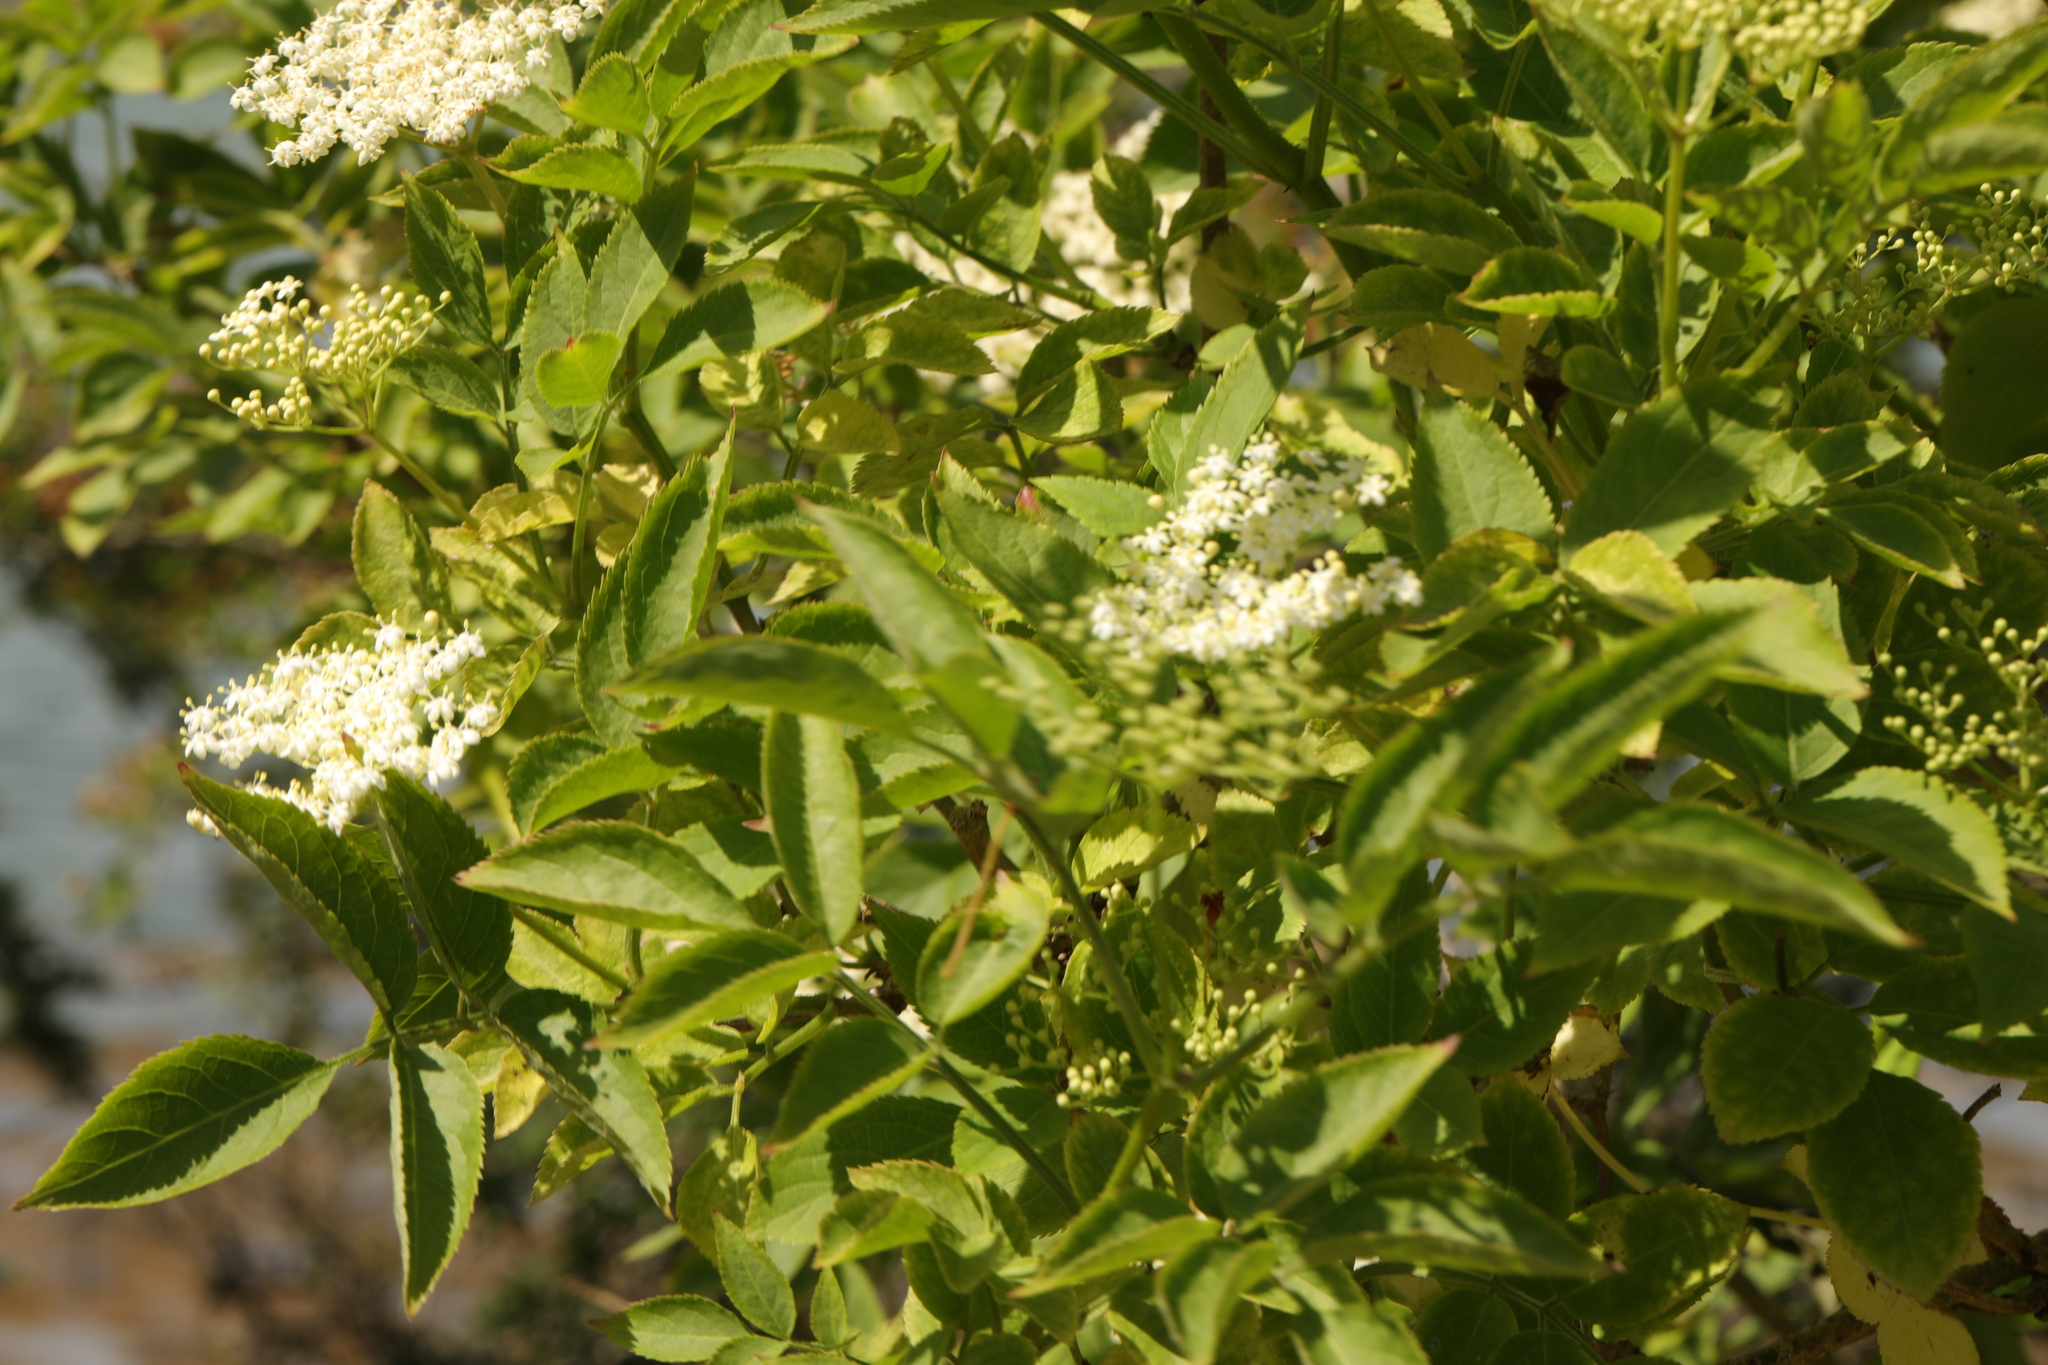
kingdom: Plantae
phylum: Tracheophyta
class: Magnoliopsida
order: Dipsacales
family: Viburnaceae
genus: Sambucus
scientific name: Sambucus nigra
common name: Elder
